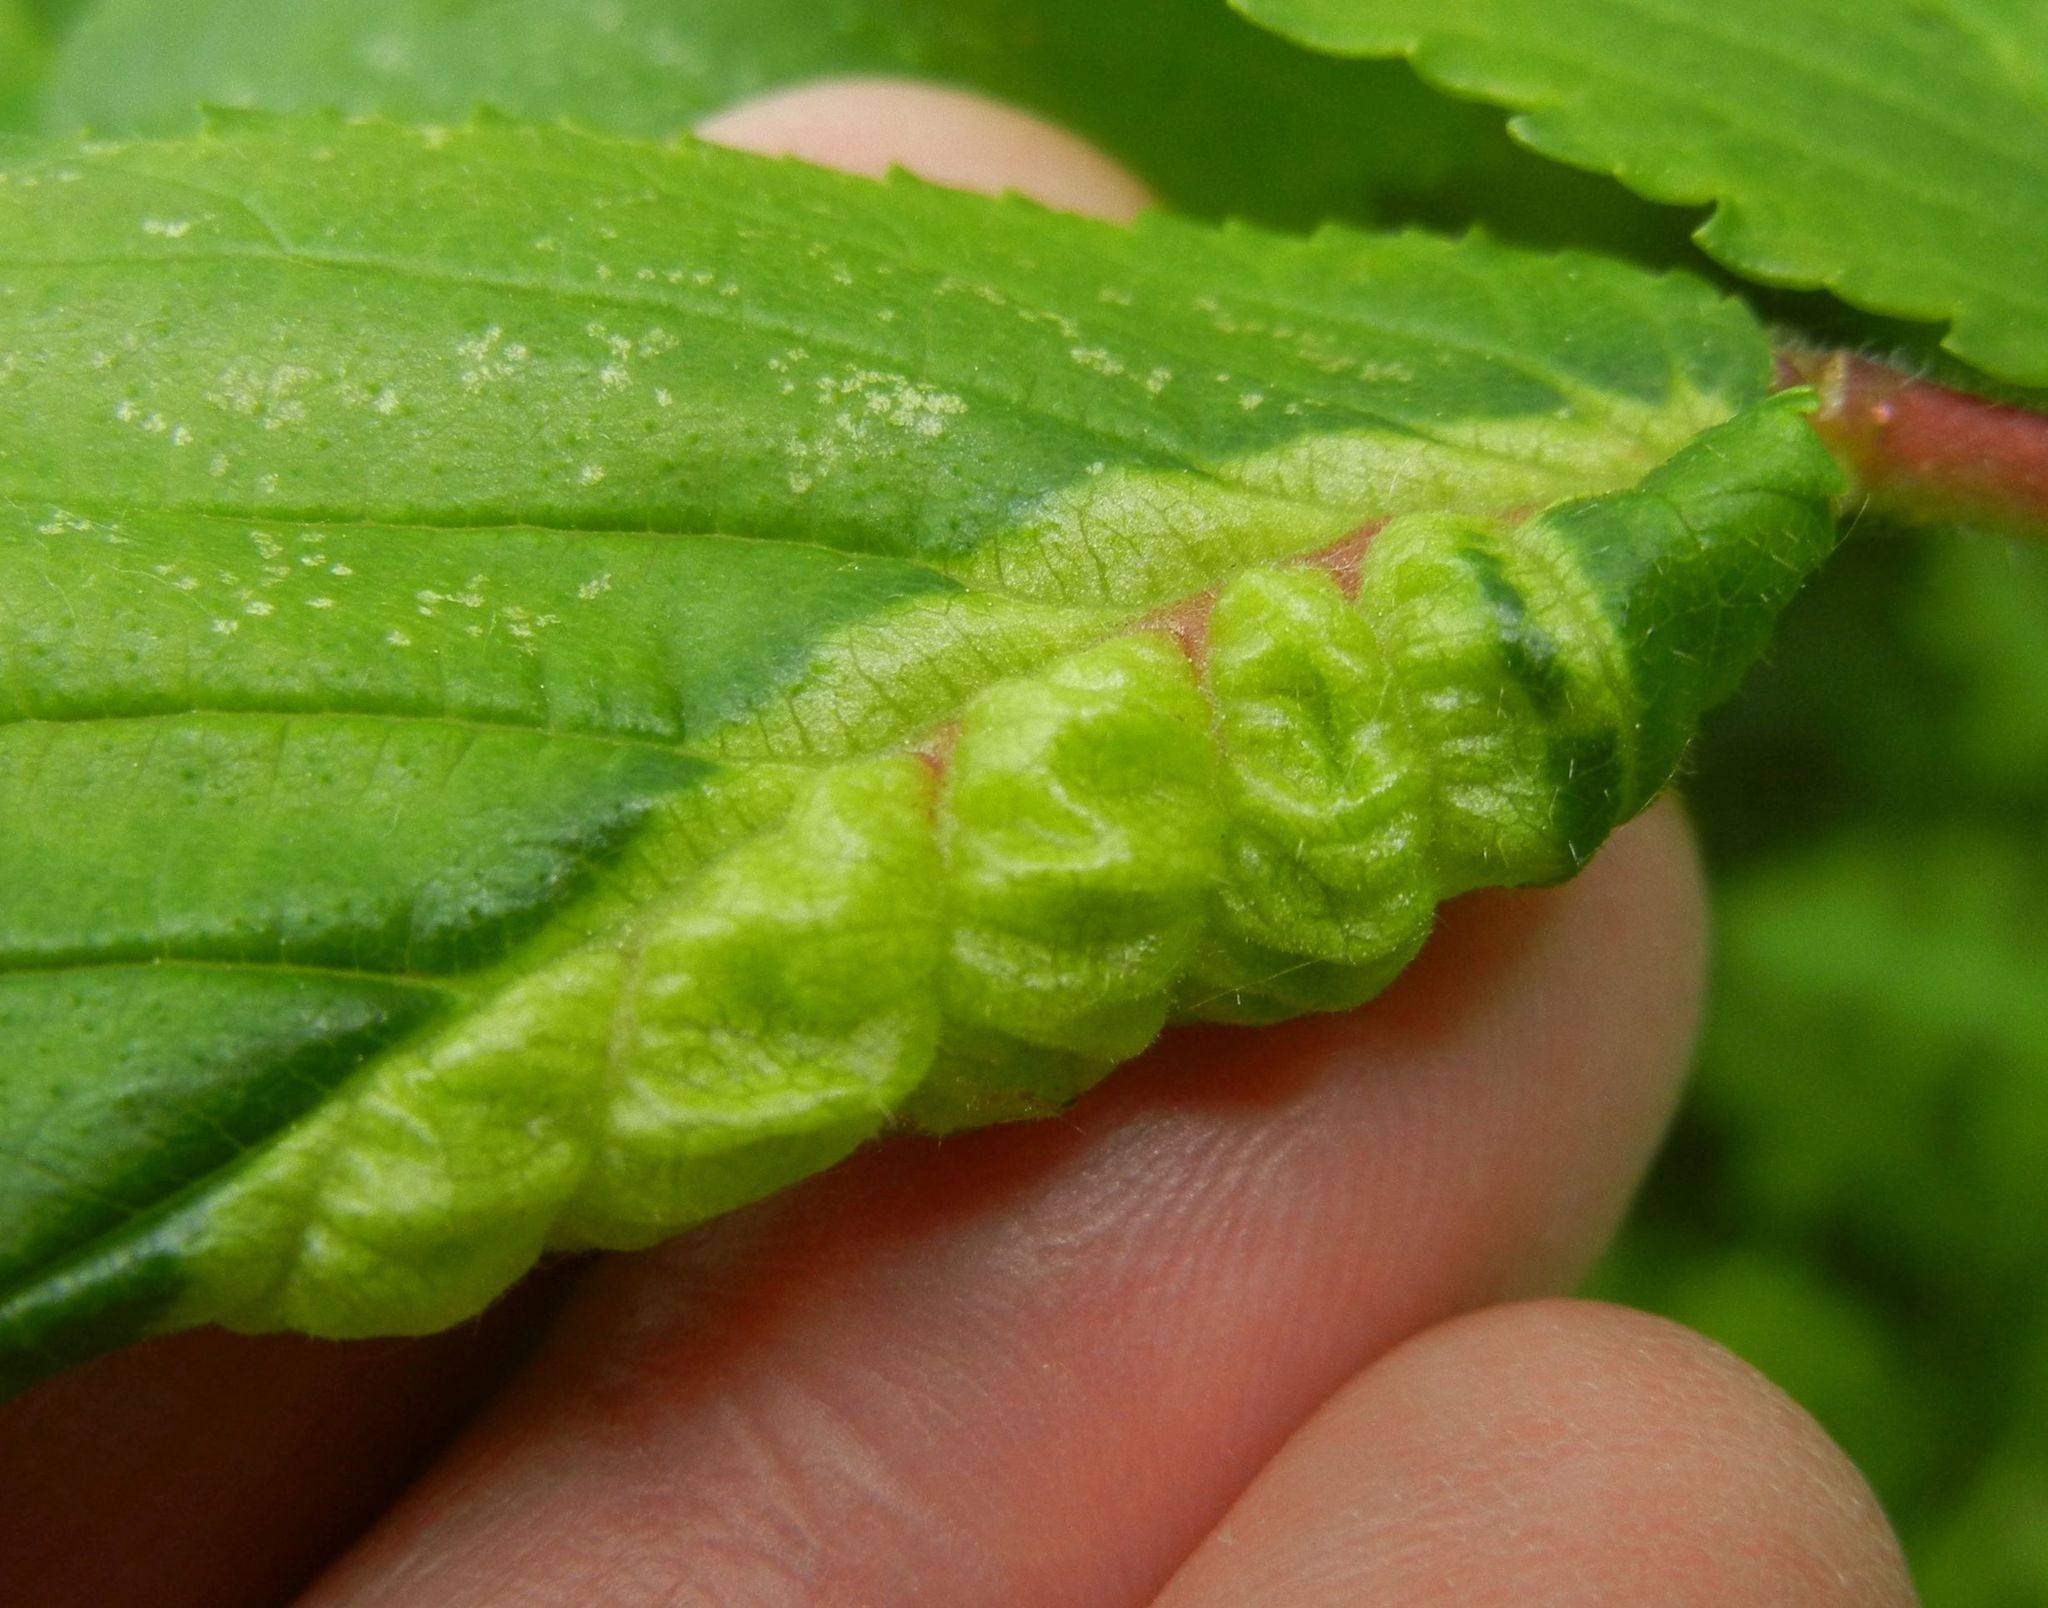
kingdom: Animalia
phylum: Arthropoda
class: Insecta
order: Hemiptera
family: Aphididae
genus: Eriosoma
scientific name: Eriosoma ulmi
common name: Woolly aphids
